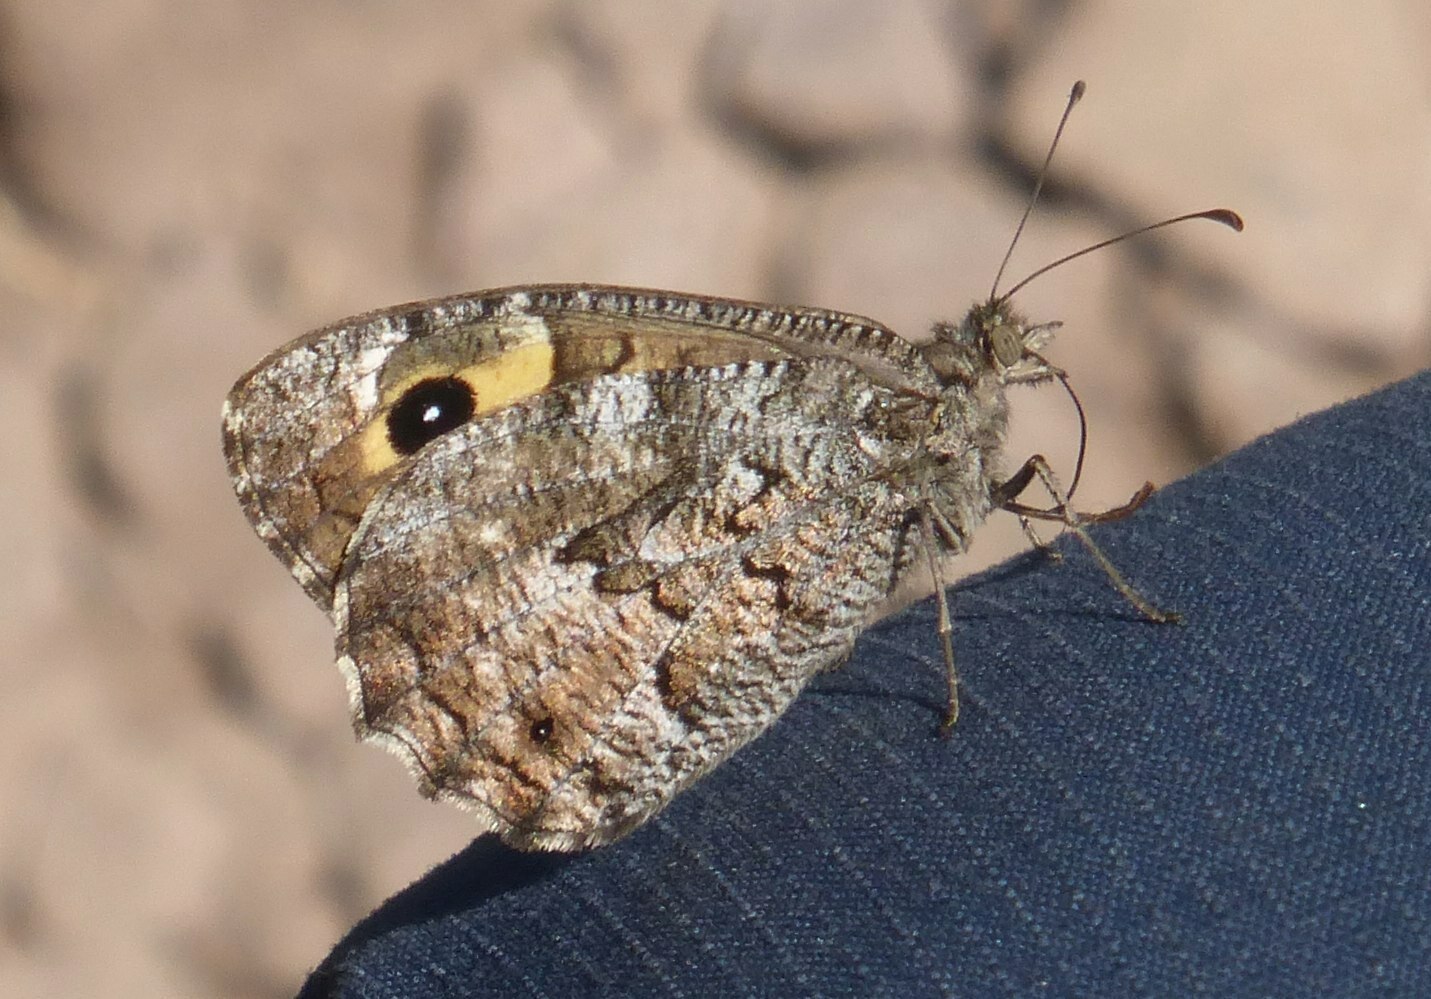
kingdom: Animalia
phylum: Arthropoda
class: Insecta
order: Lepidoptera
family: Nymphalidae
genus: Hipparchia
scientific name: Hipparchia algirica
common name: Mountain grayling
